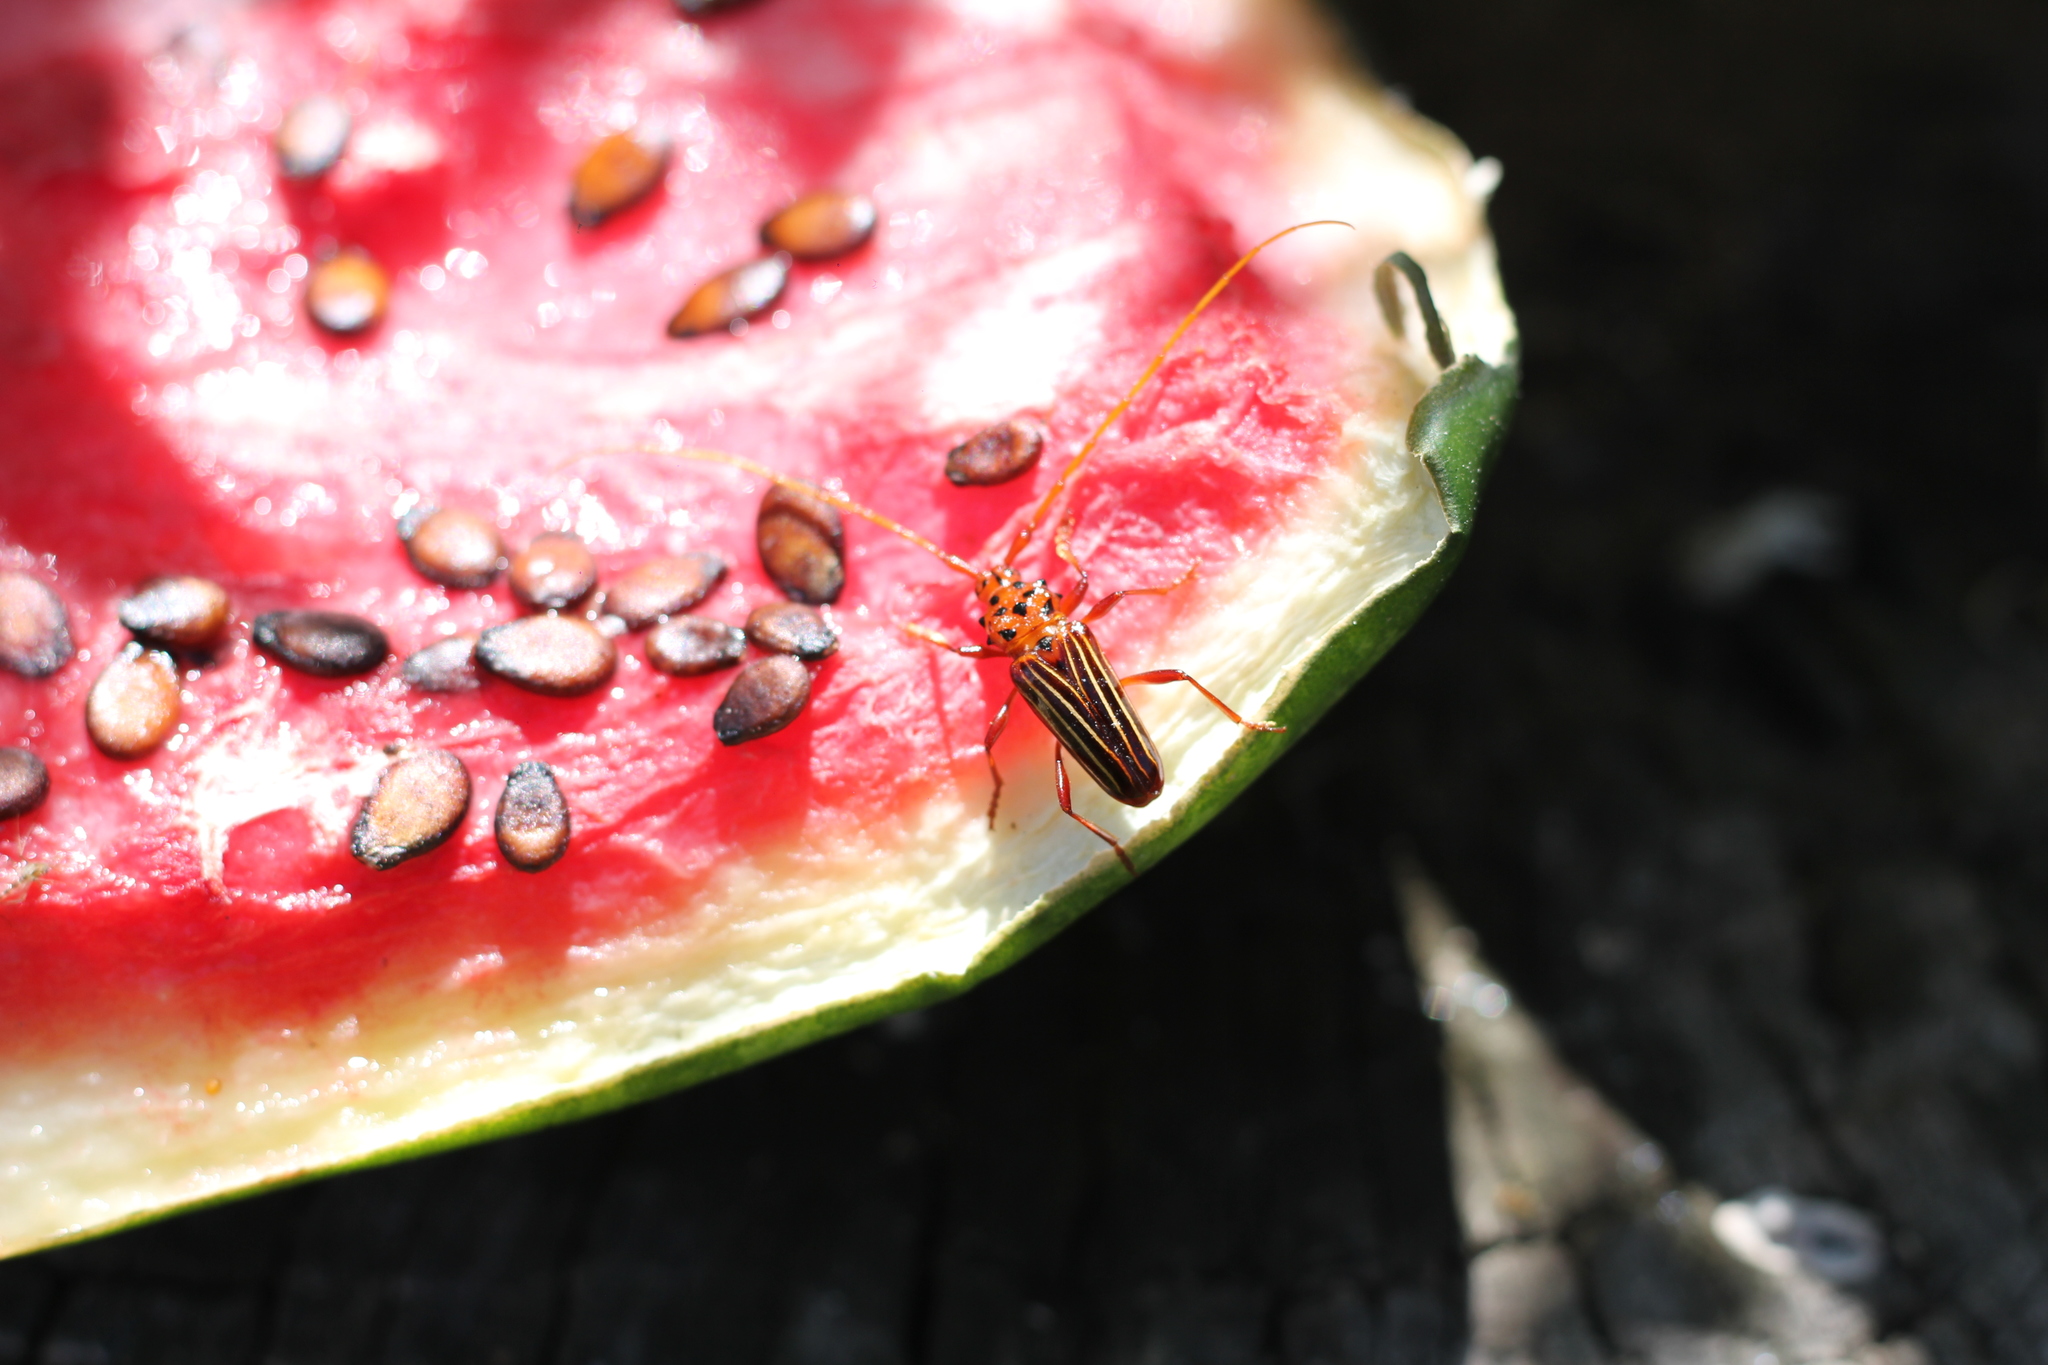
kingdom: Animalia
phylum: Arthropoda
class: Insecta
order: Coleoptera
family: Cerambycidae
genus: Chydarteres
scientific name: Chydarteres striatus
